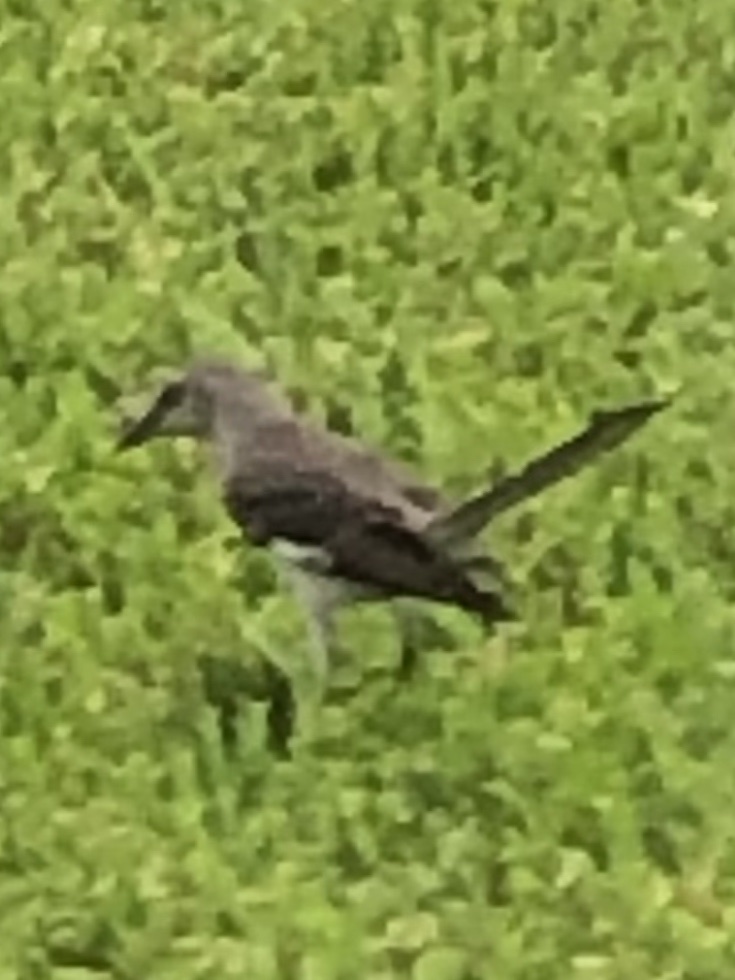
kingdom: Animalia
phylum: Chordata
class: Aves
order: Passeriformes
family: Mimidae
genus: Mimus
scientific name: Mimus polyglottos
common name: Northern mockingbird
